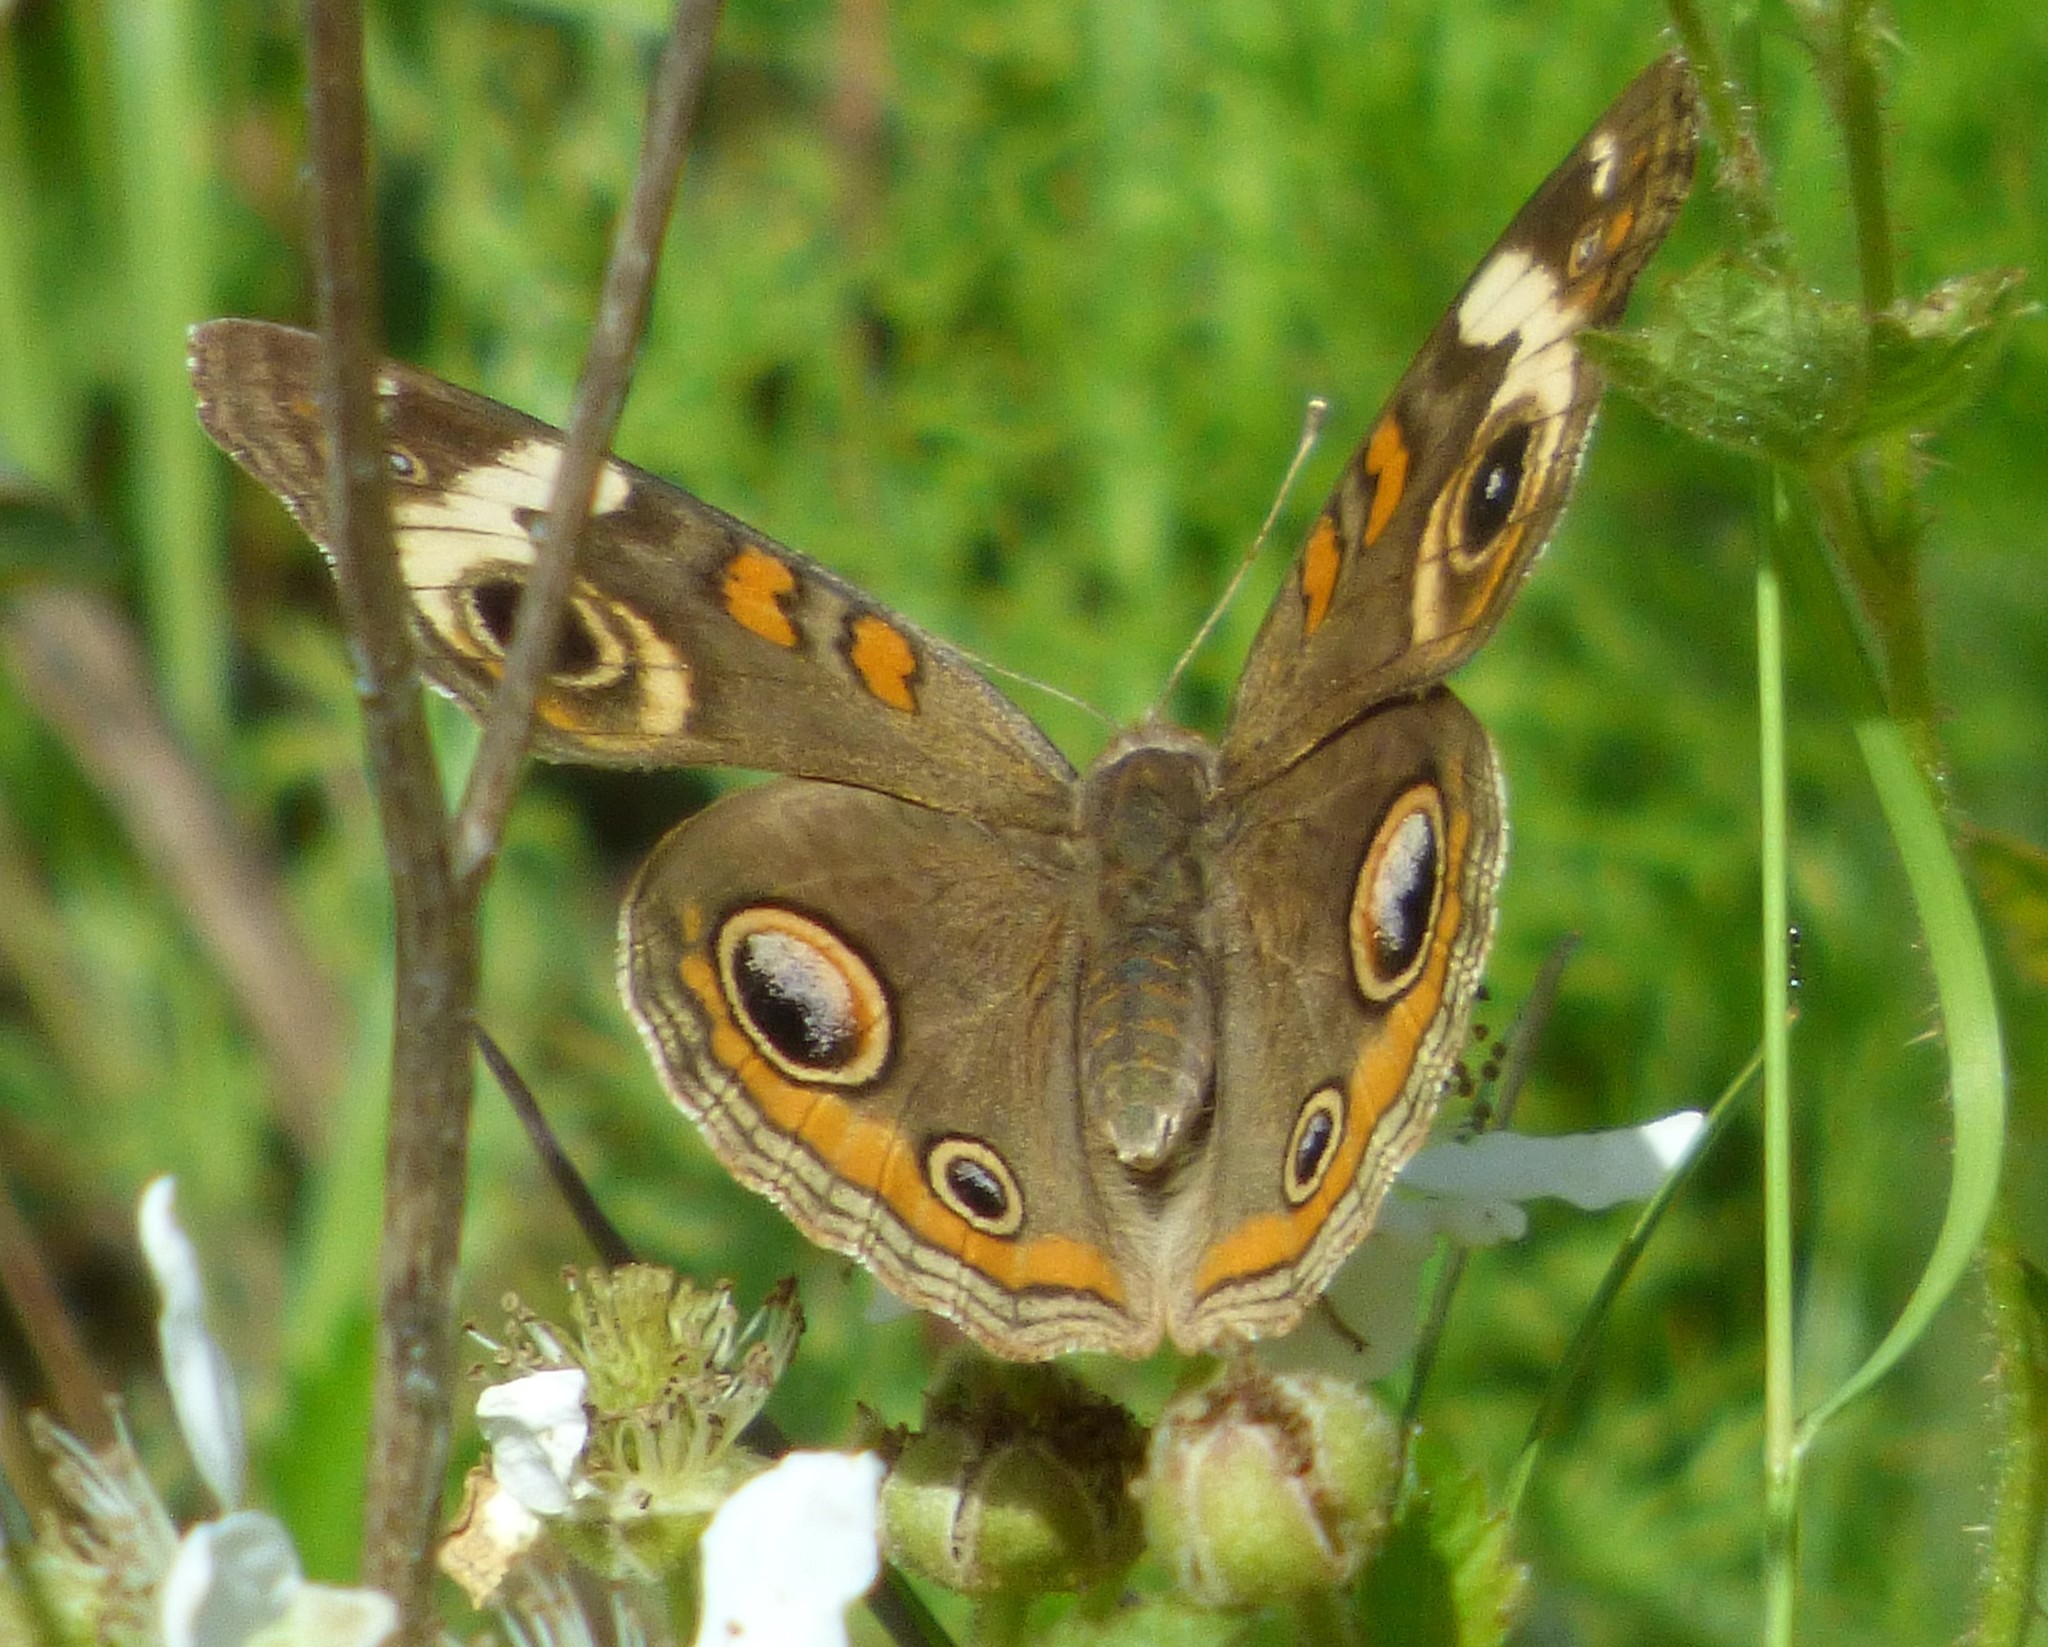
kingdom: Animalia
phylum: Arthropoda
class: Insecta
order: Lepidoptera
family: Nymphalidae
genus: Junonia
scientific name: Junonia coenia
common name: Common buckeye
